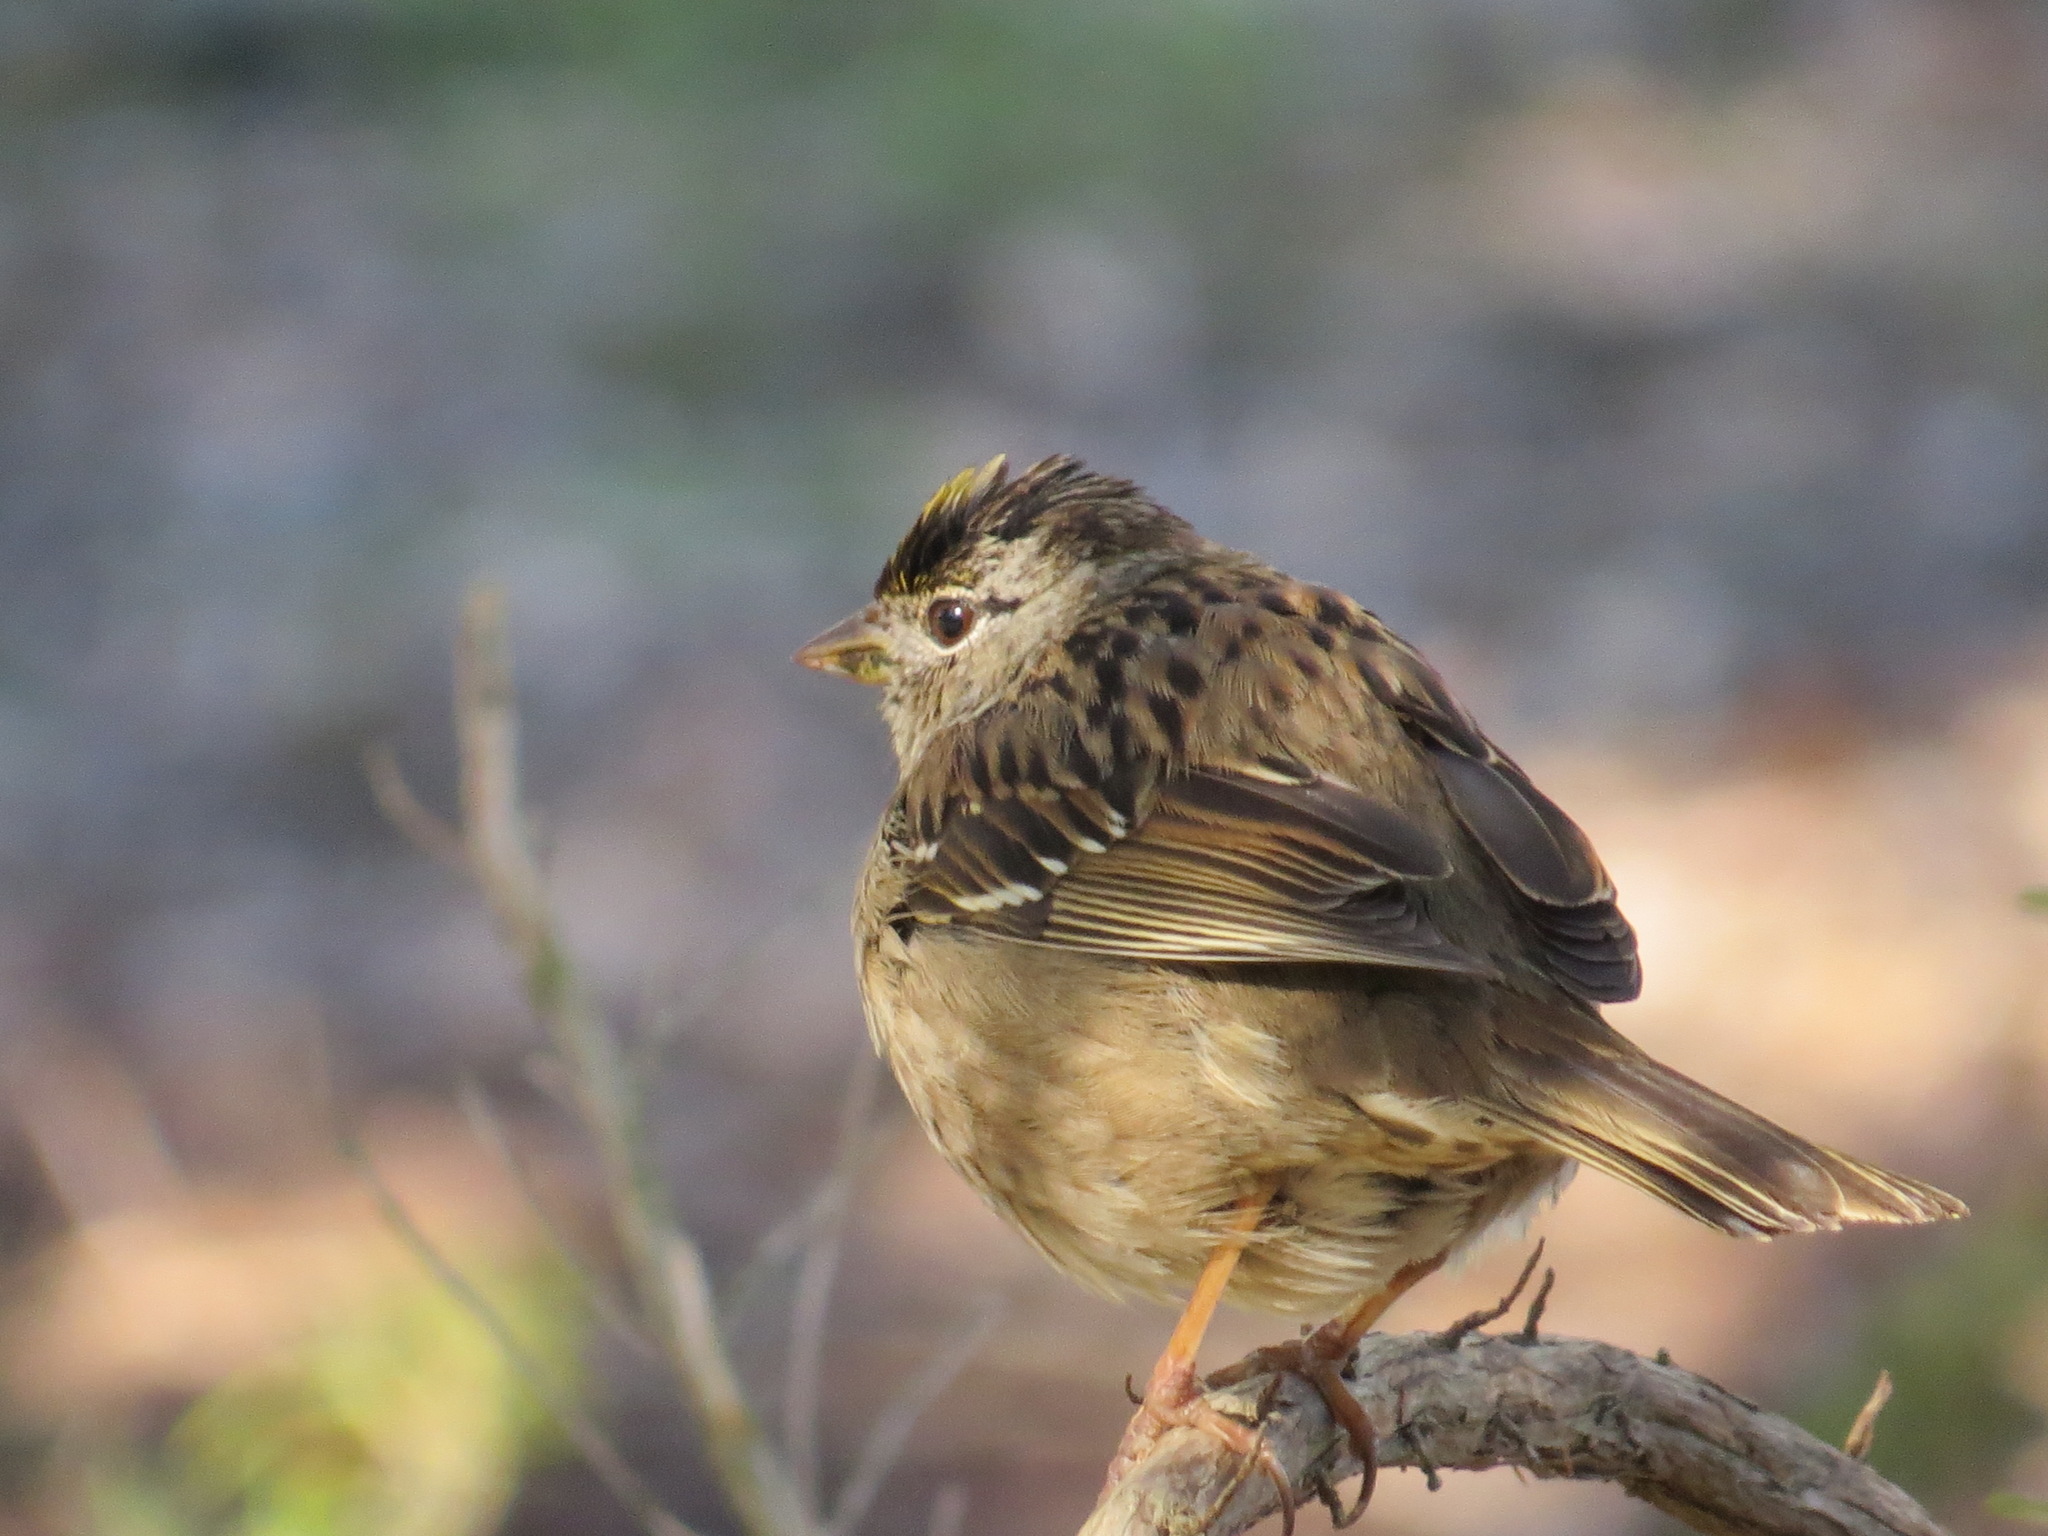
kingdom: Animalia
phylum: Chordata
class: Aves
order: Passeriformes
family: Passerellidae
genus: Zonotrichia
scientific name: Zonotrichia atricapilla
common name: Golden-crowned sparrow
